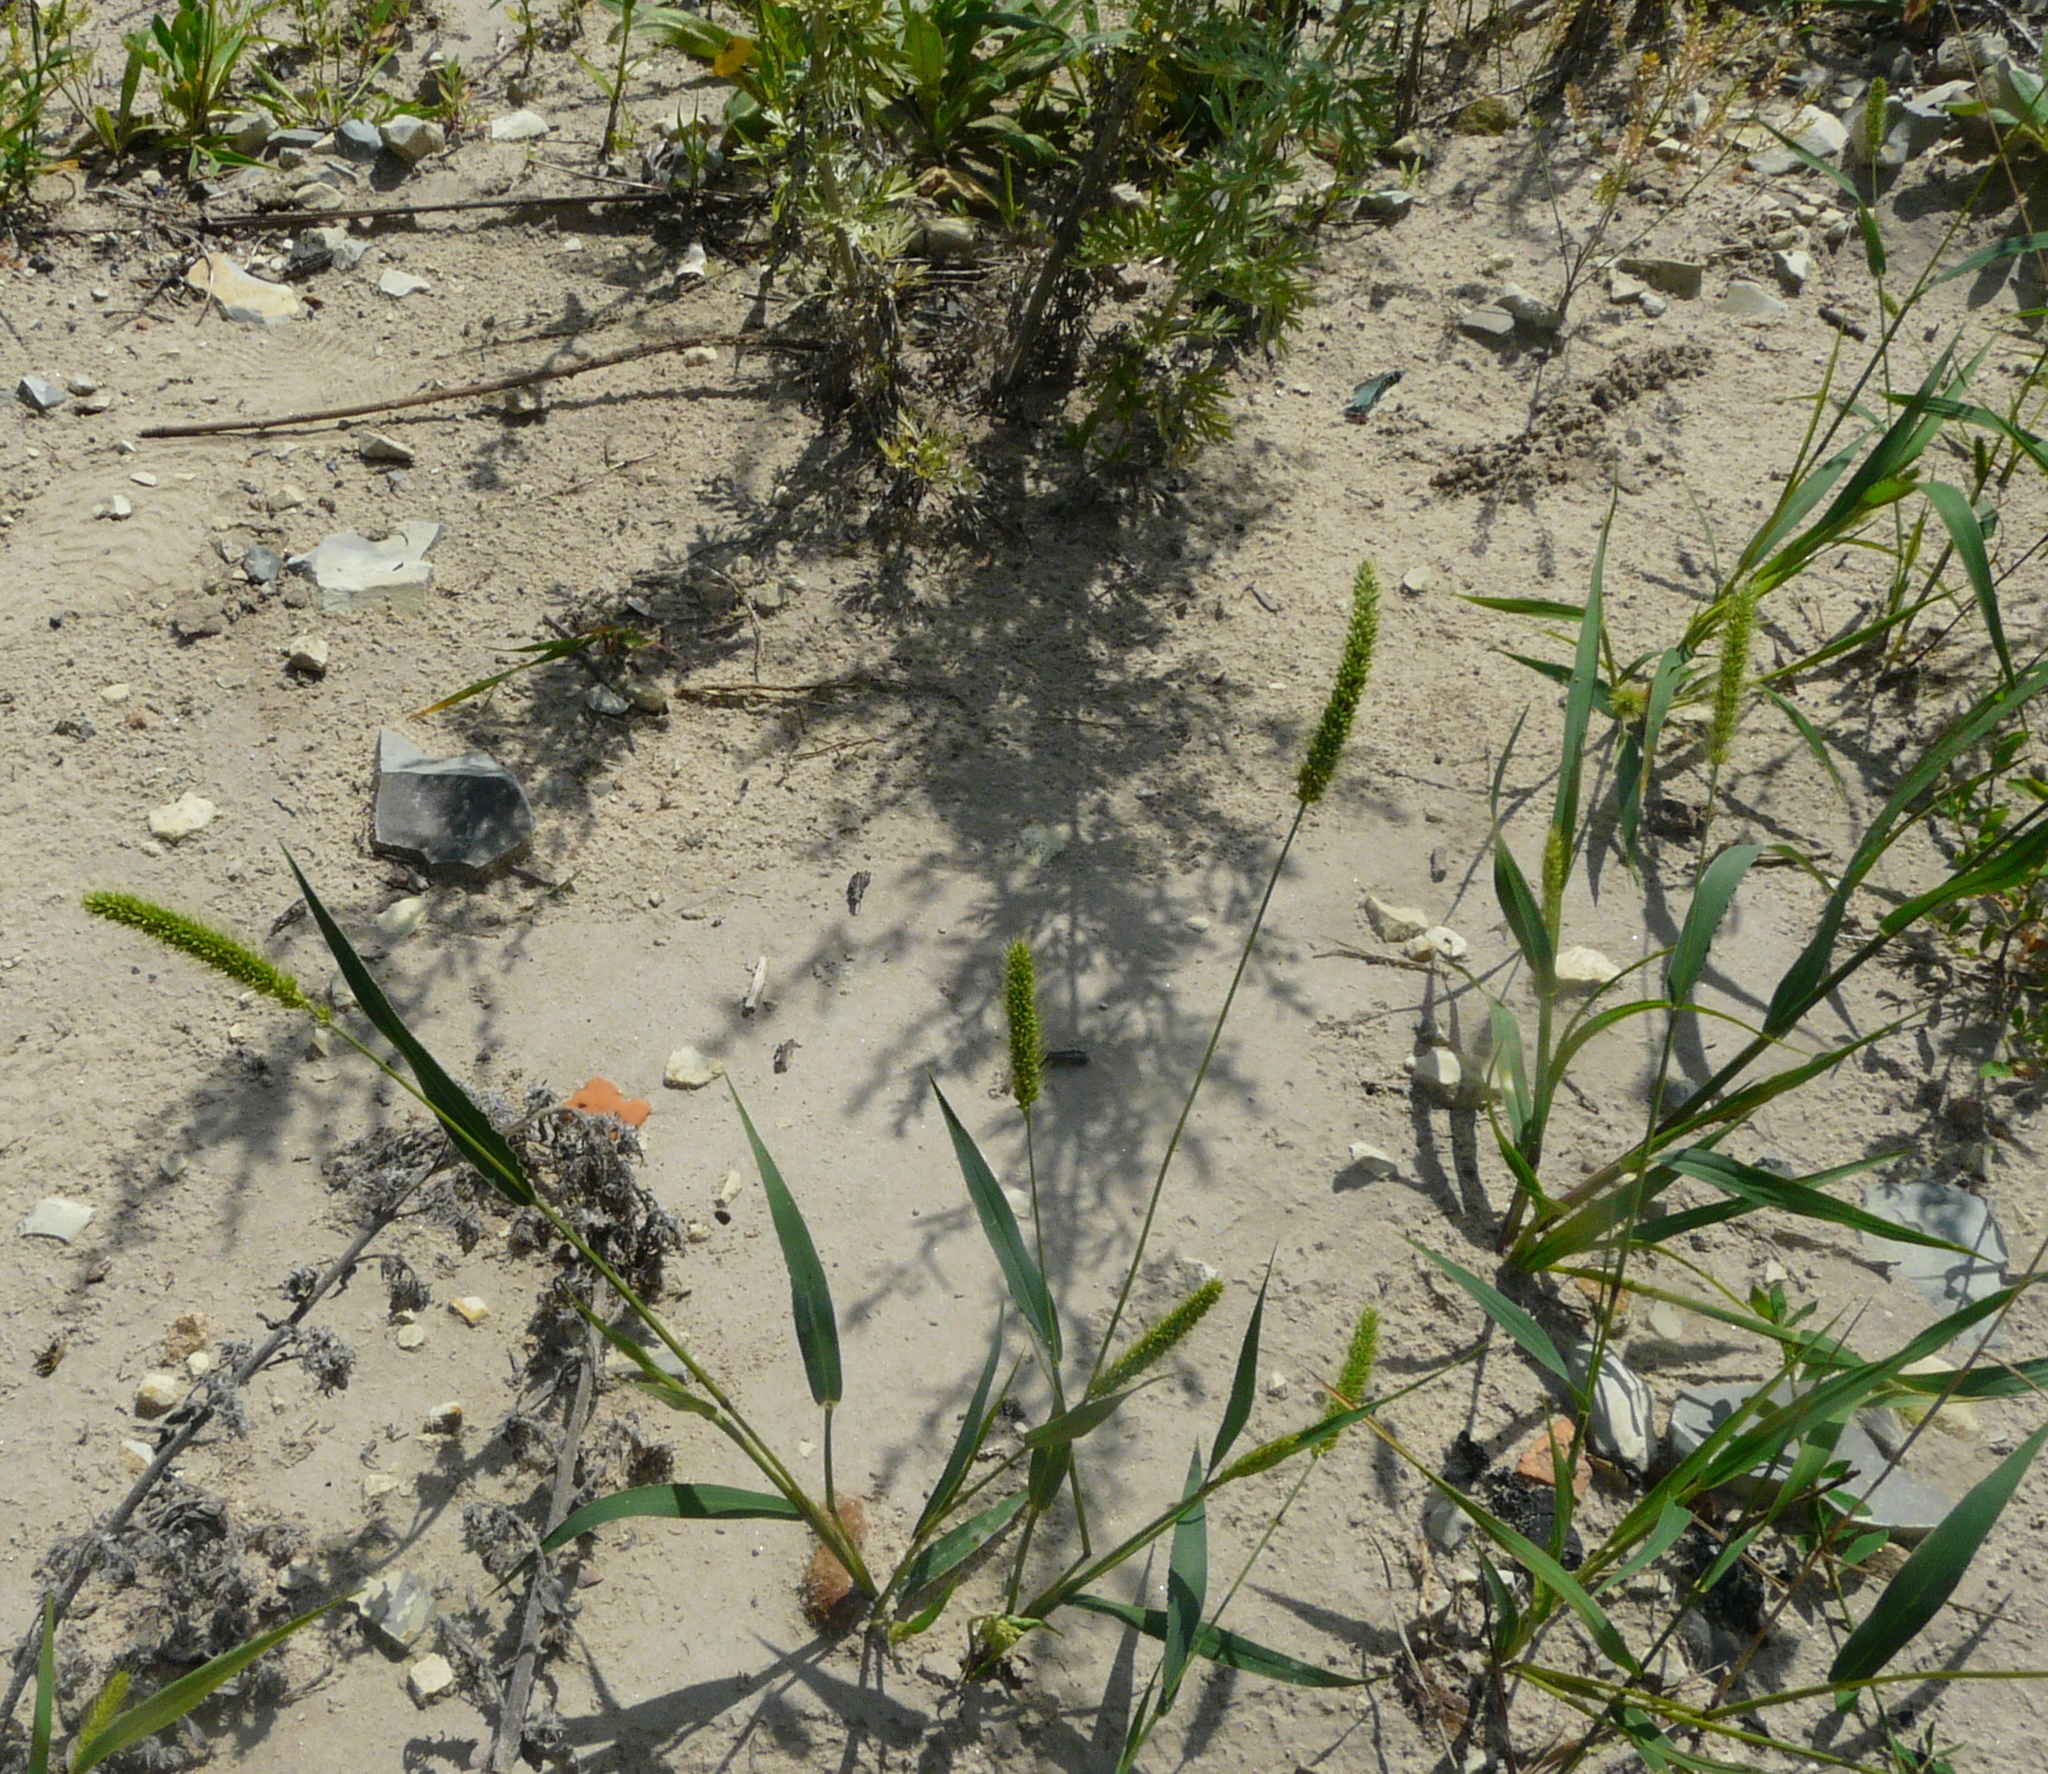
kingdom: Plantae
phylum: Tracheophyta
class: Liliopsida
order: Poales
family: Poaceae
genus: Setaria
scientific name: Setaria viridis
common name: Green bristlegrass
